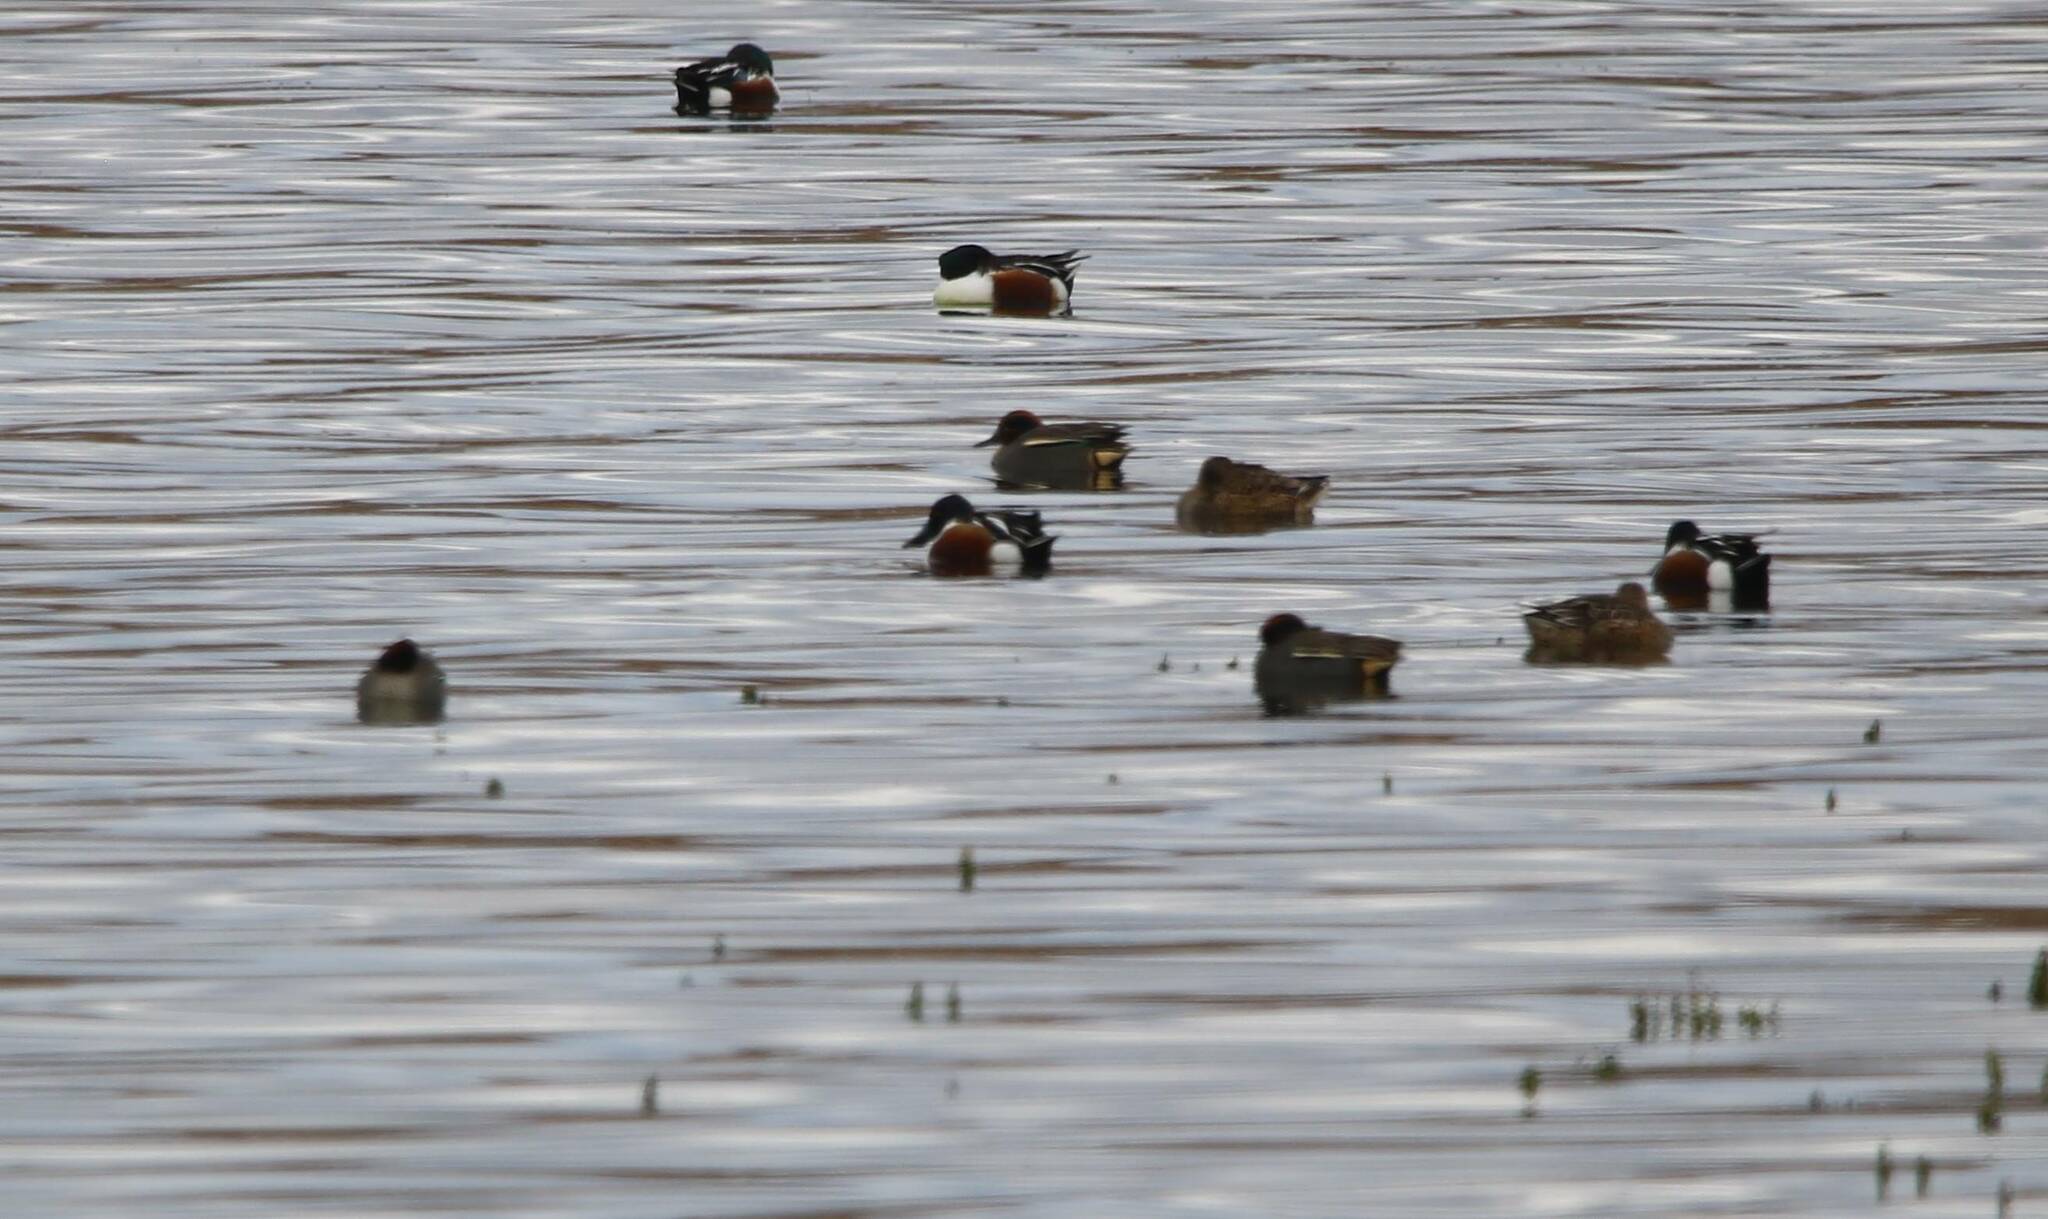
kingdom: Animalia
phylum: Chordata
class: Aves
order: Anseriformes
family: Anatidae
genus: Spatula
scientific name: Spatula clypeata
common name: Northern shoveler
